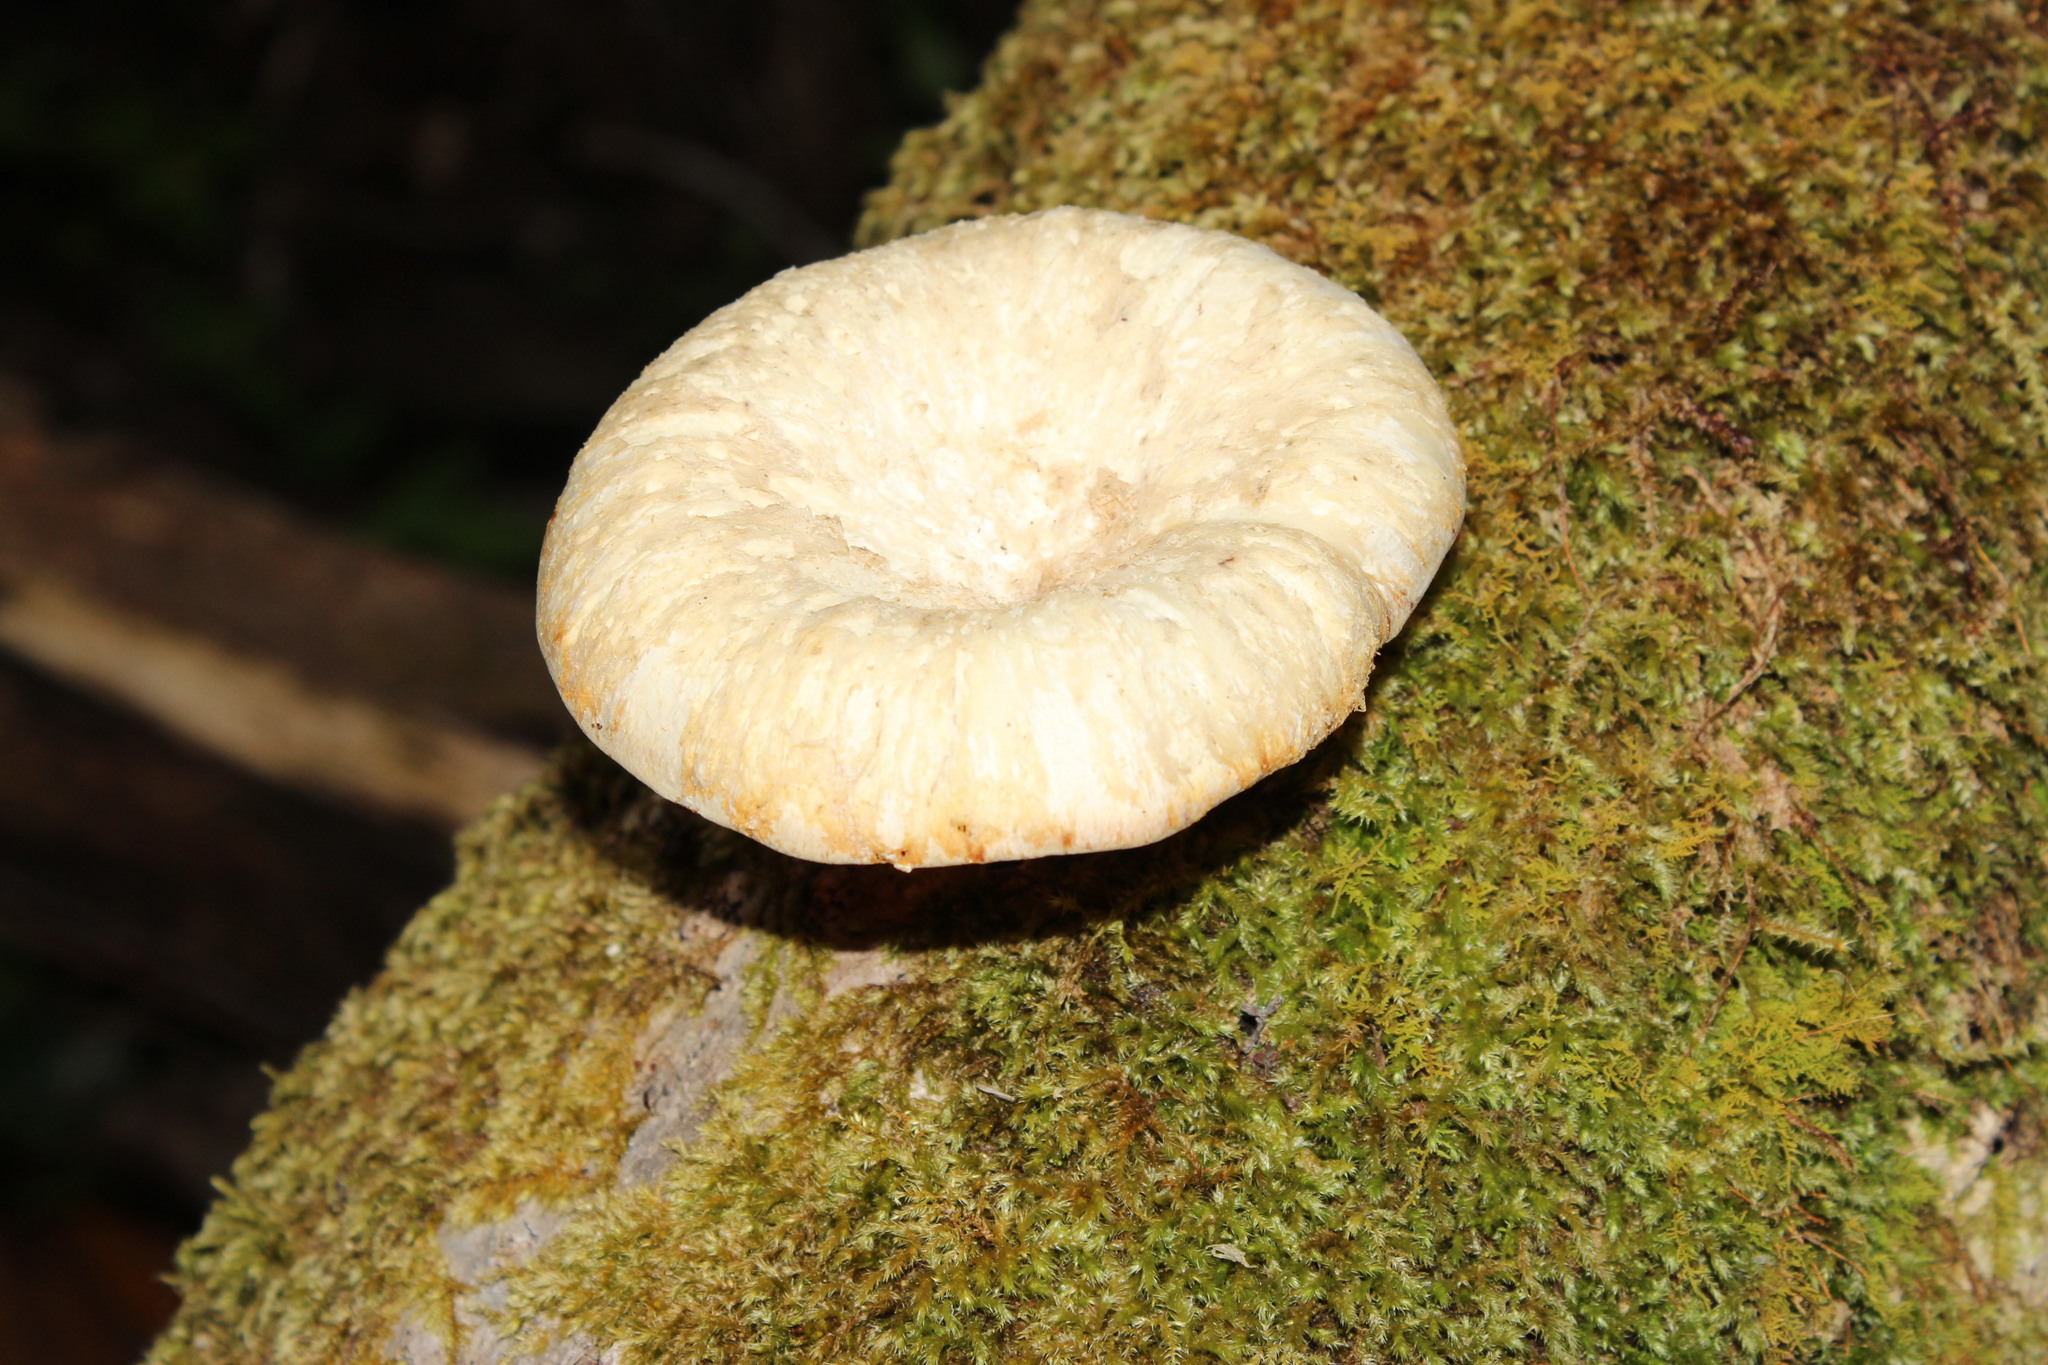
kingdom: Fungi
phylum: Basidiomycota
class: Agaricomycetes
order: Polyporales
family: Polyporaceae
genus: Lentinus
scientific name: Lentinus sajor-caju
